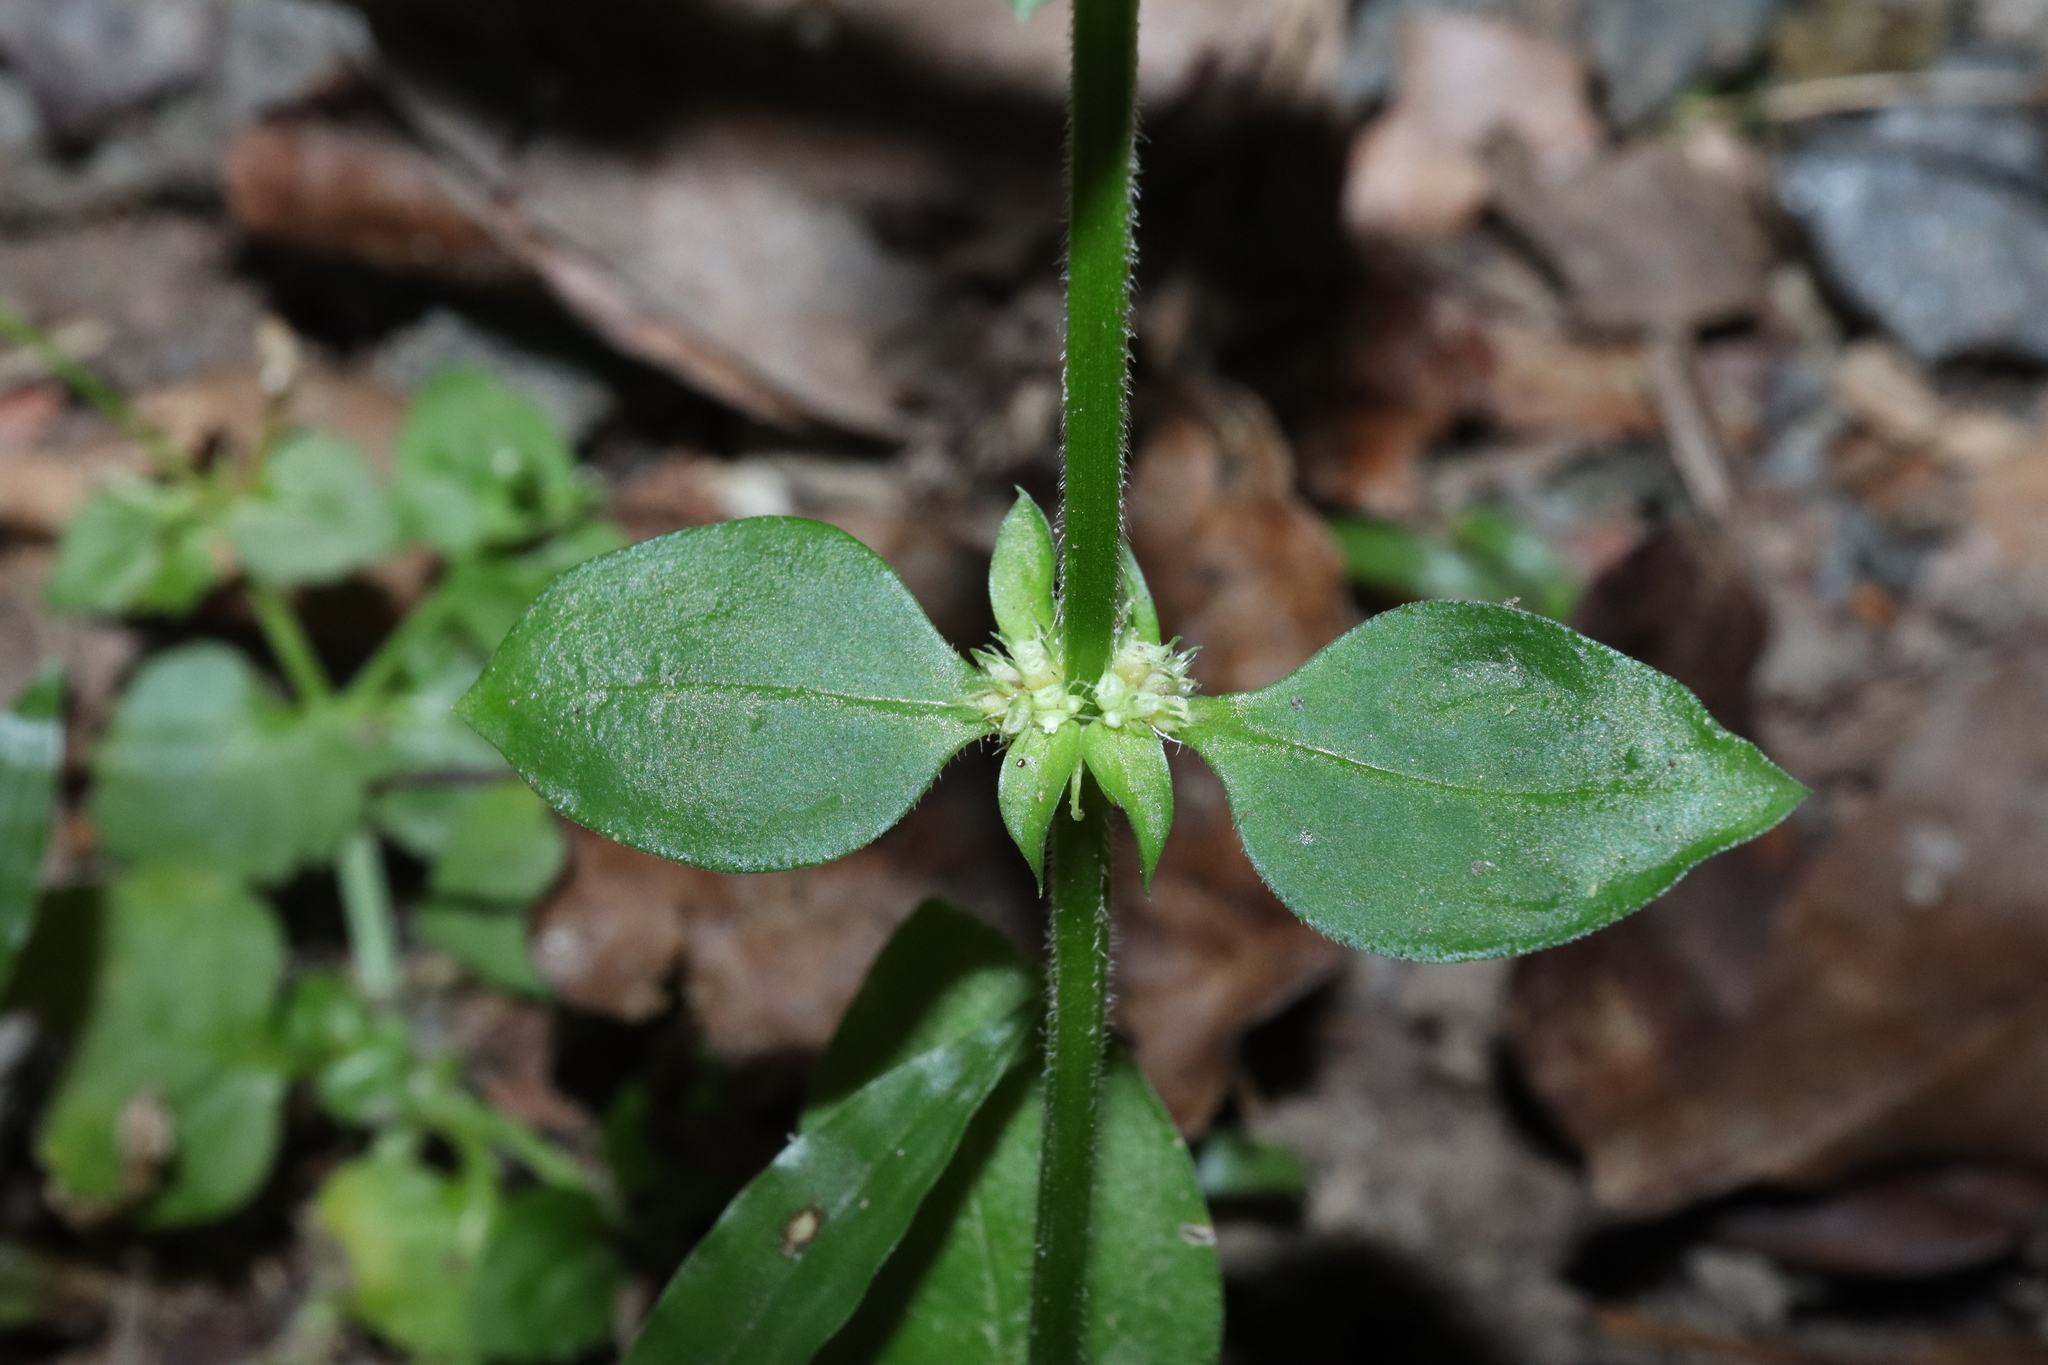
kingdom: Plantae
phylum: Tracheophyta
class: Magnoliopsida
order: Gentianales
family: Rubiaceae
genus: Spermacoce
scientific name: Spermacoce exilis
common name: Pacific false buttonweed
